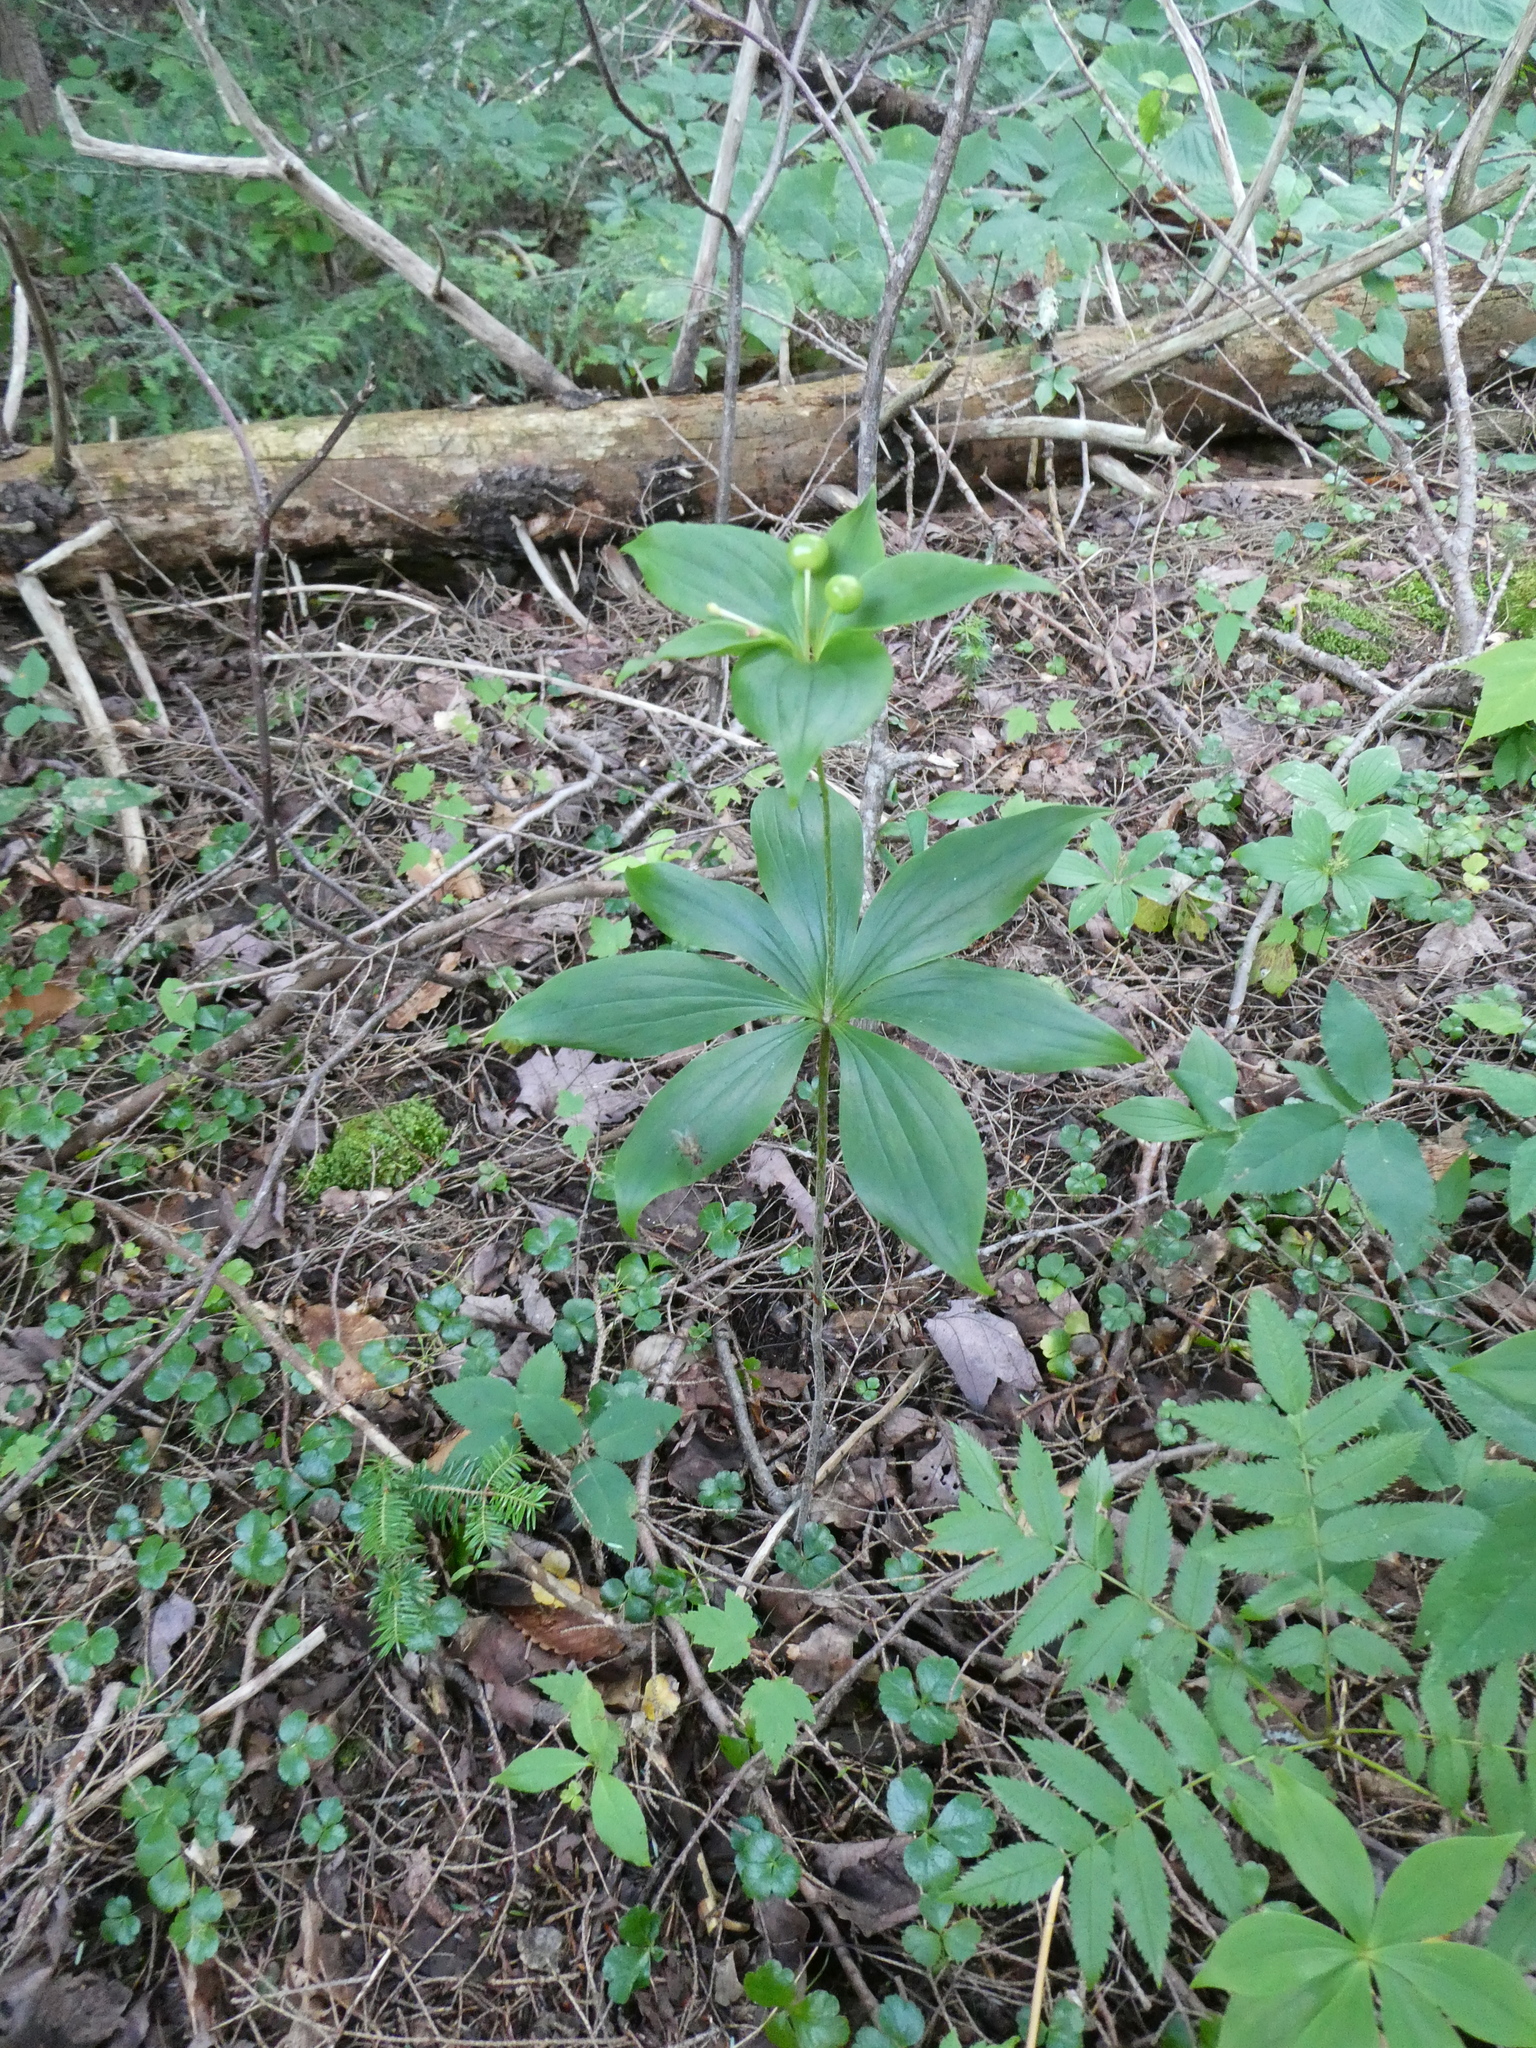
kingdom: Plantae
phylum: Tracheophyta
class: Liliopsida
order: Liliales
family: Liliaceae
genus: Medeola
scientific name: Medeola virginiana
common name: Indian cucumber-root
